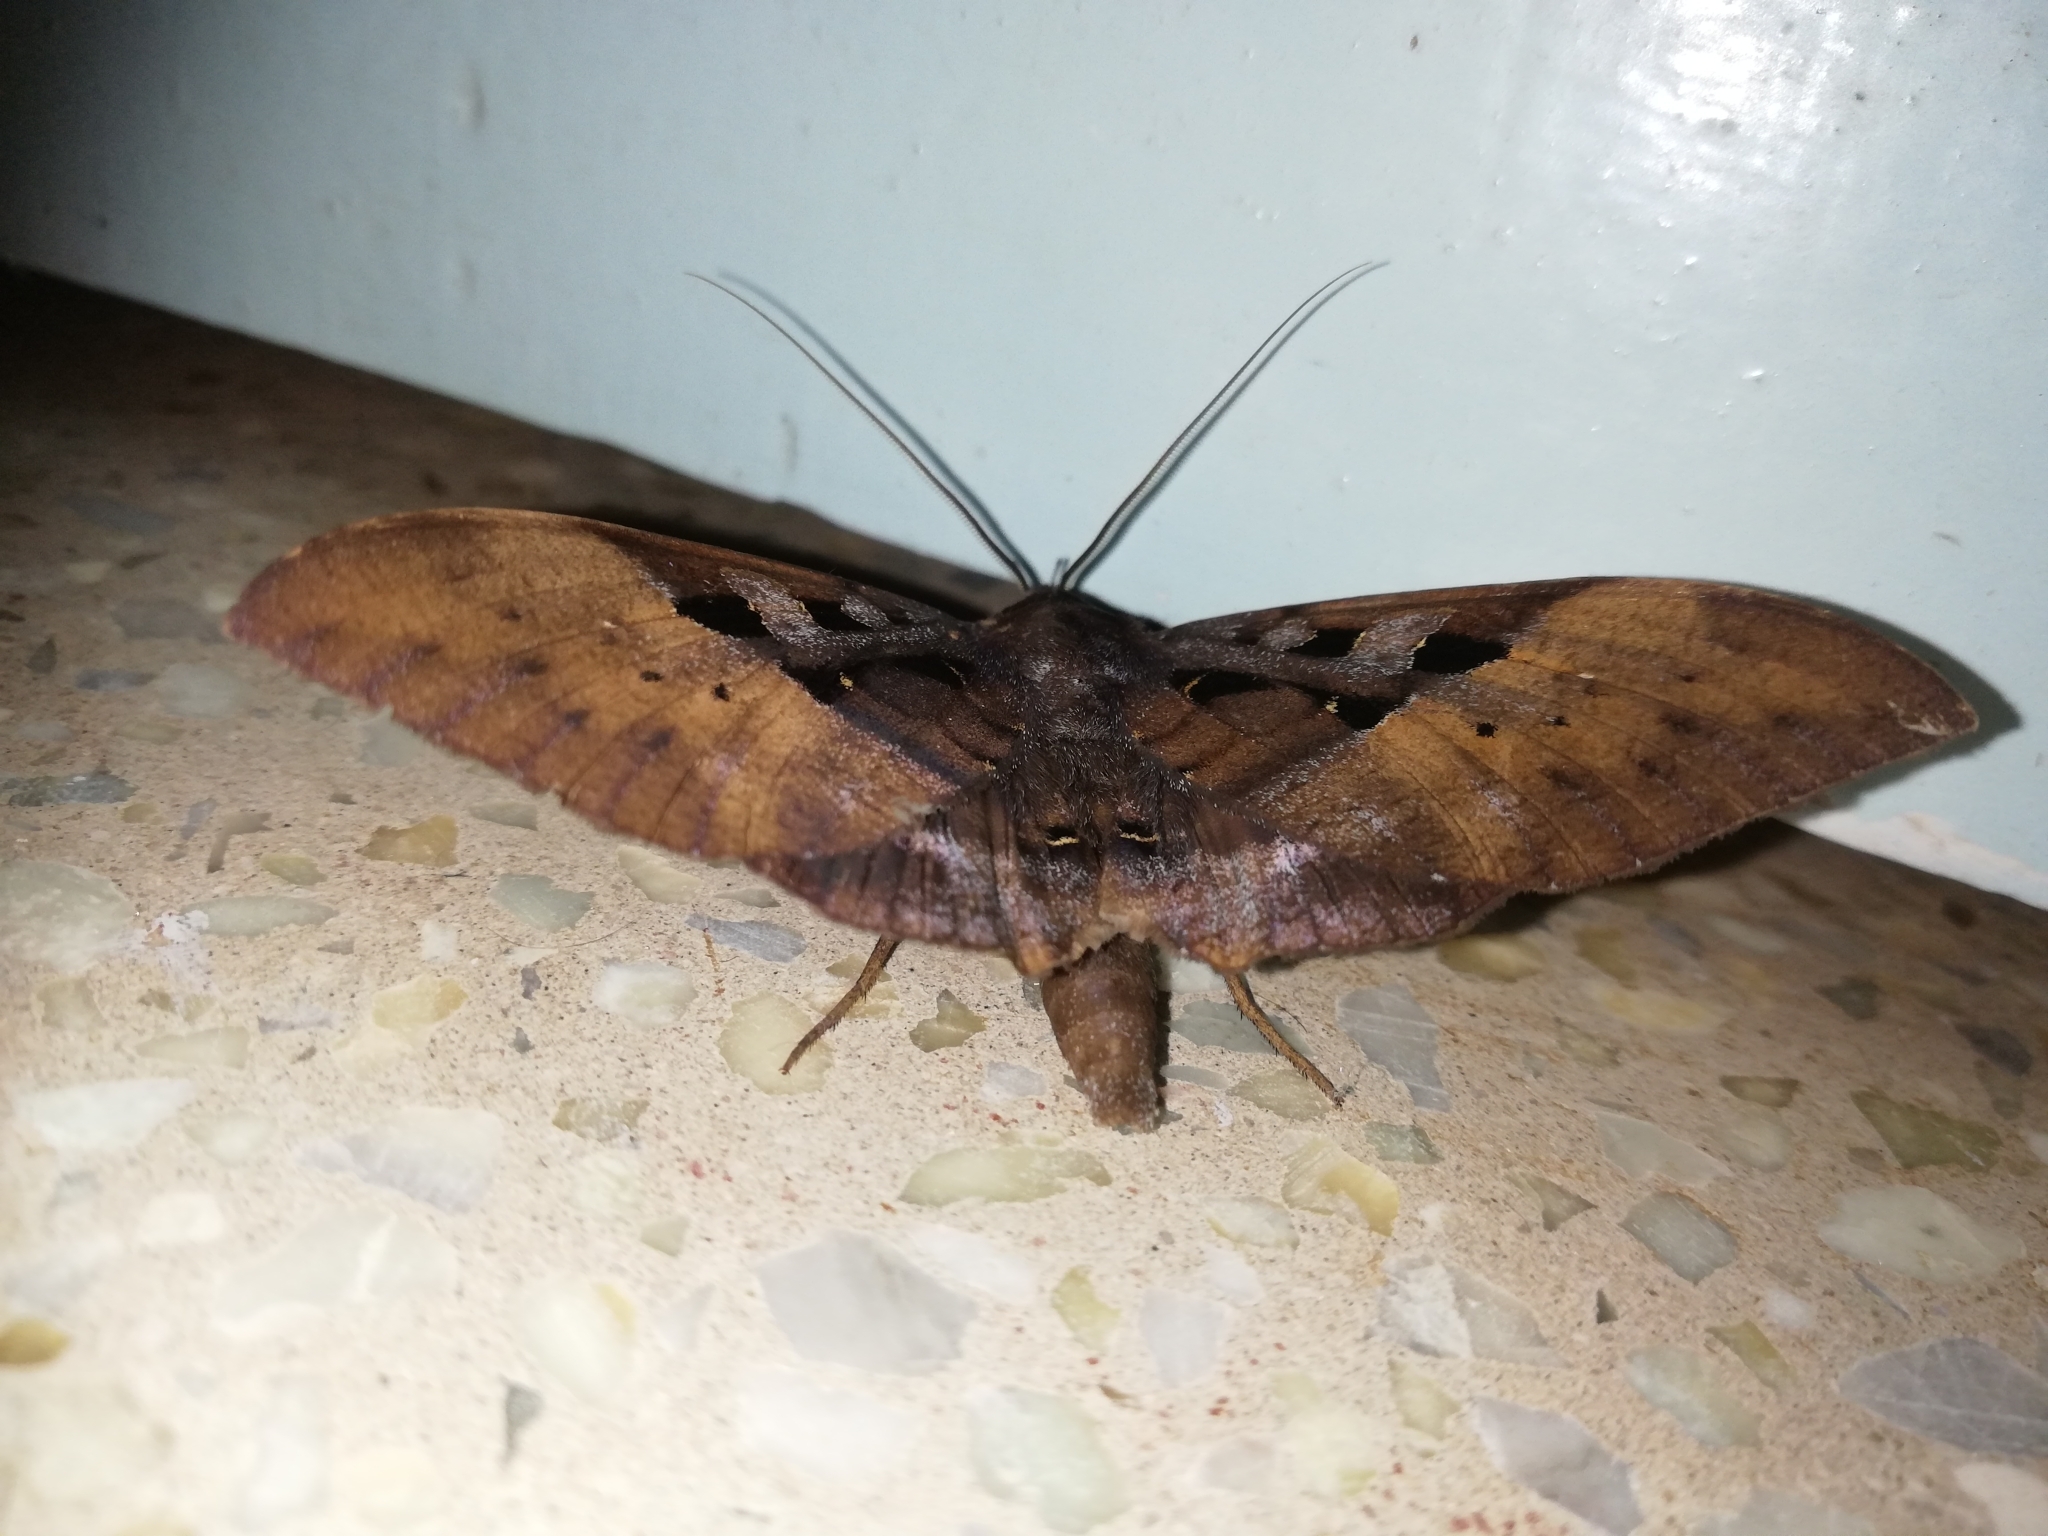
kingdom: Animalia
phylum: Arthropoda
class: Insecta
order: Lepidoptera
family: Erebidae
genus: Ischyja
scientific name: Ischyja marapok
